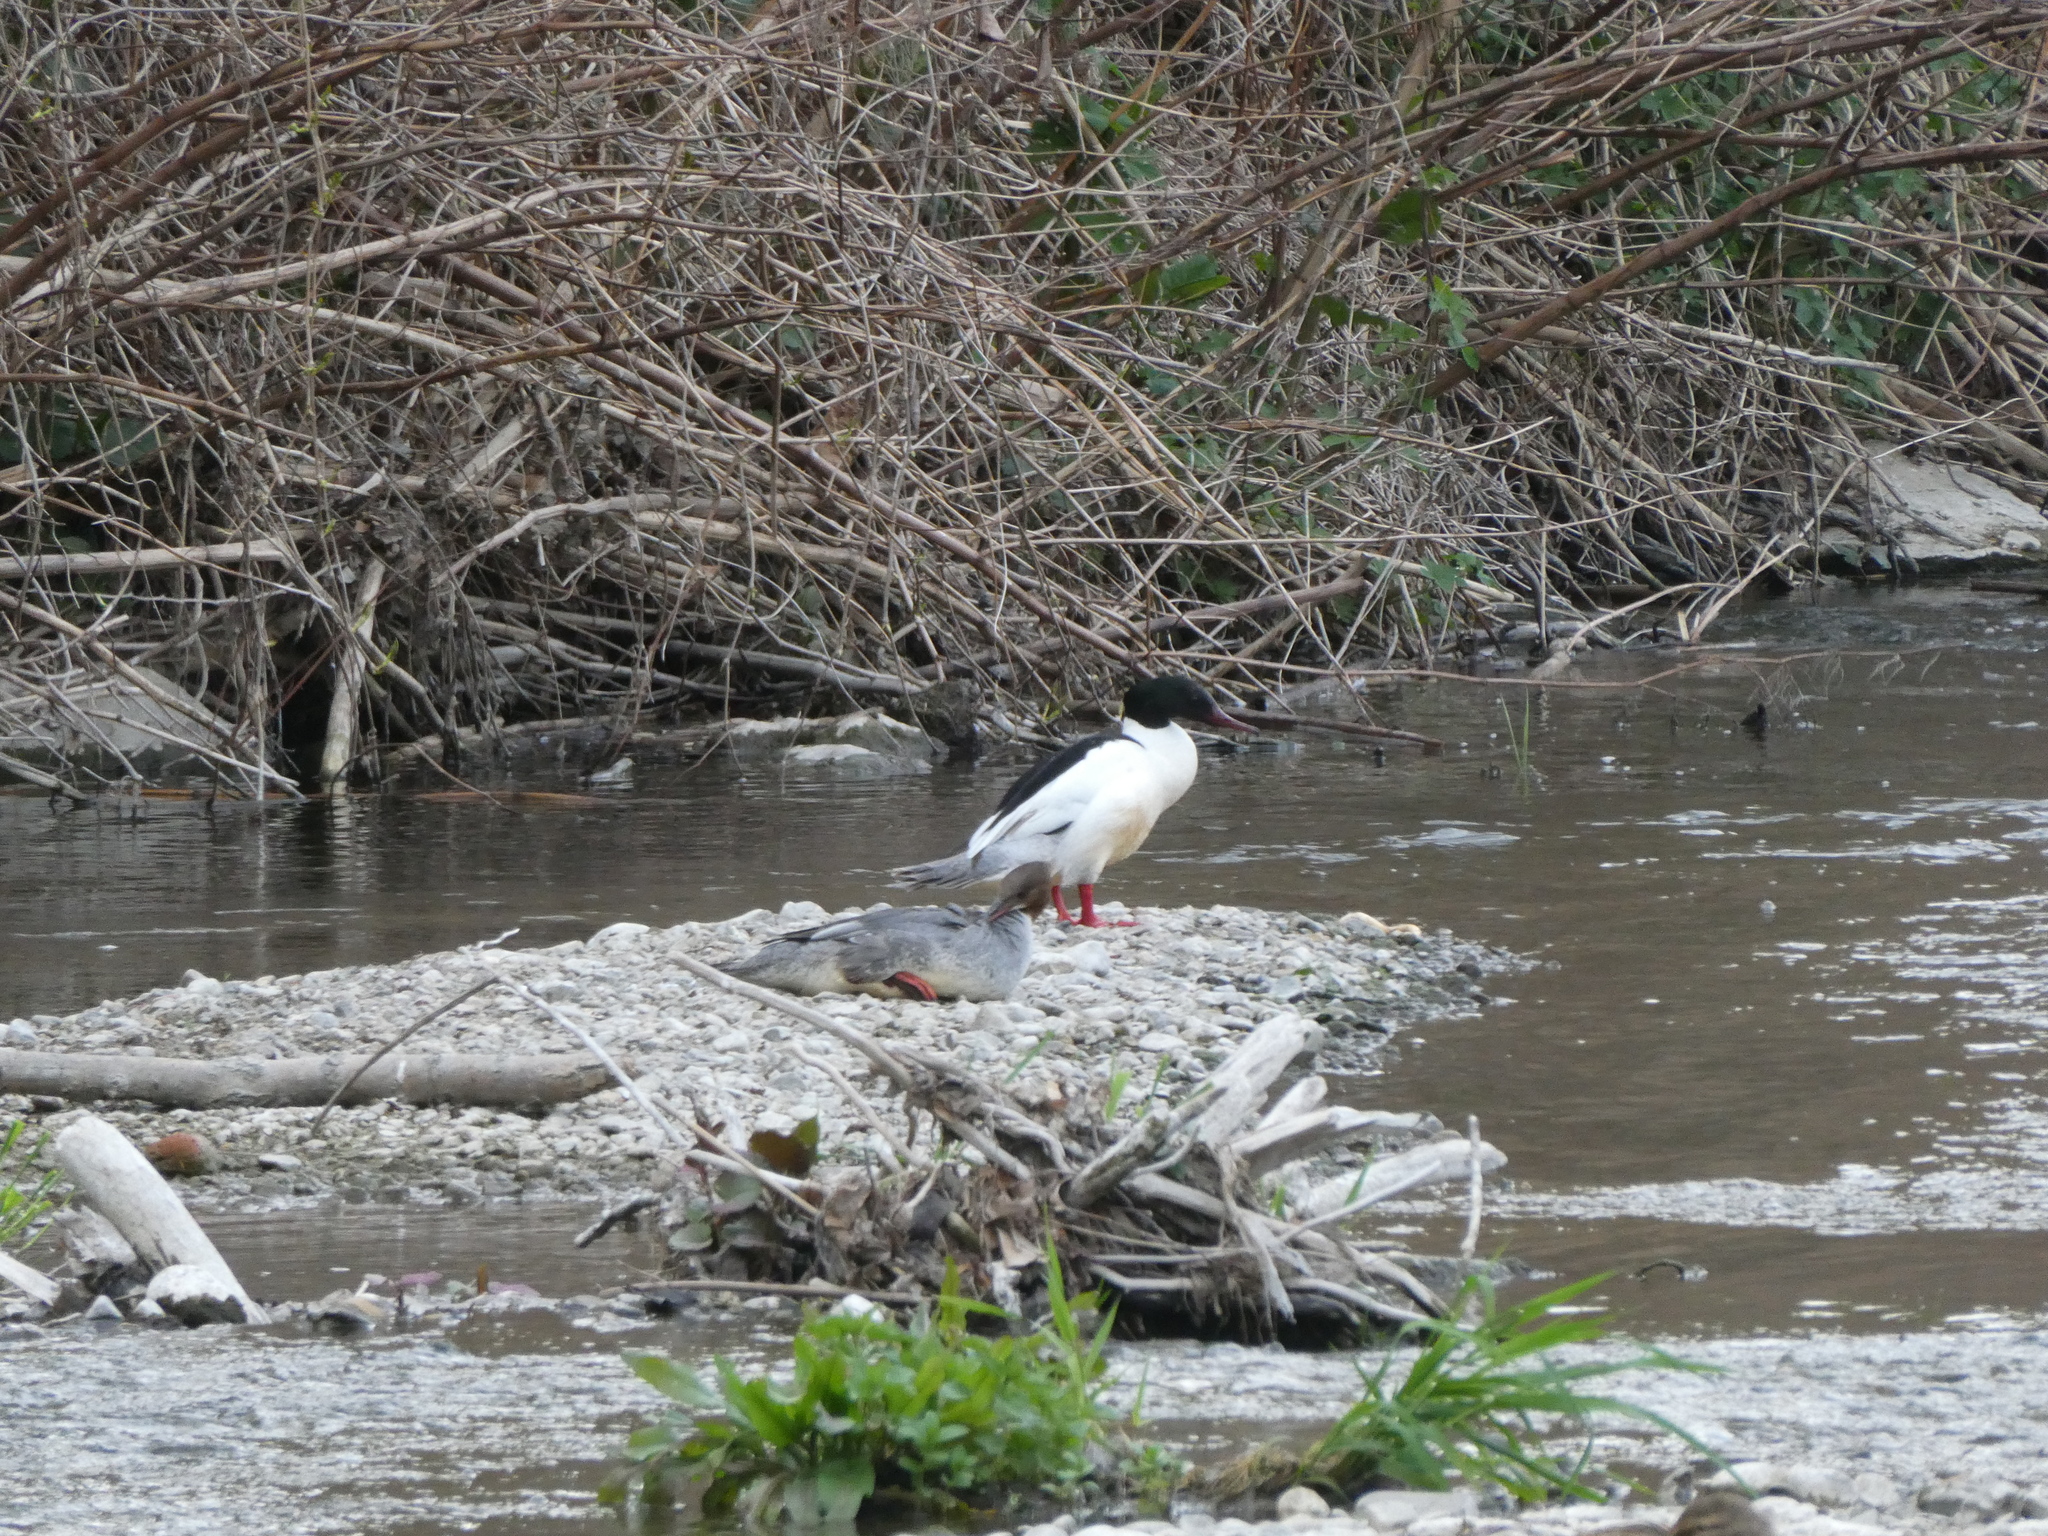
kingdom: Animalia
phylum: Chordata
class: Aves
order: Anseriformes
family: Anatidae
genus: Mergus
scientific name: Mergus merganser
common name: Common merganser
